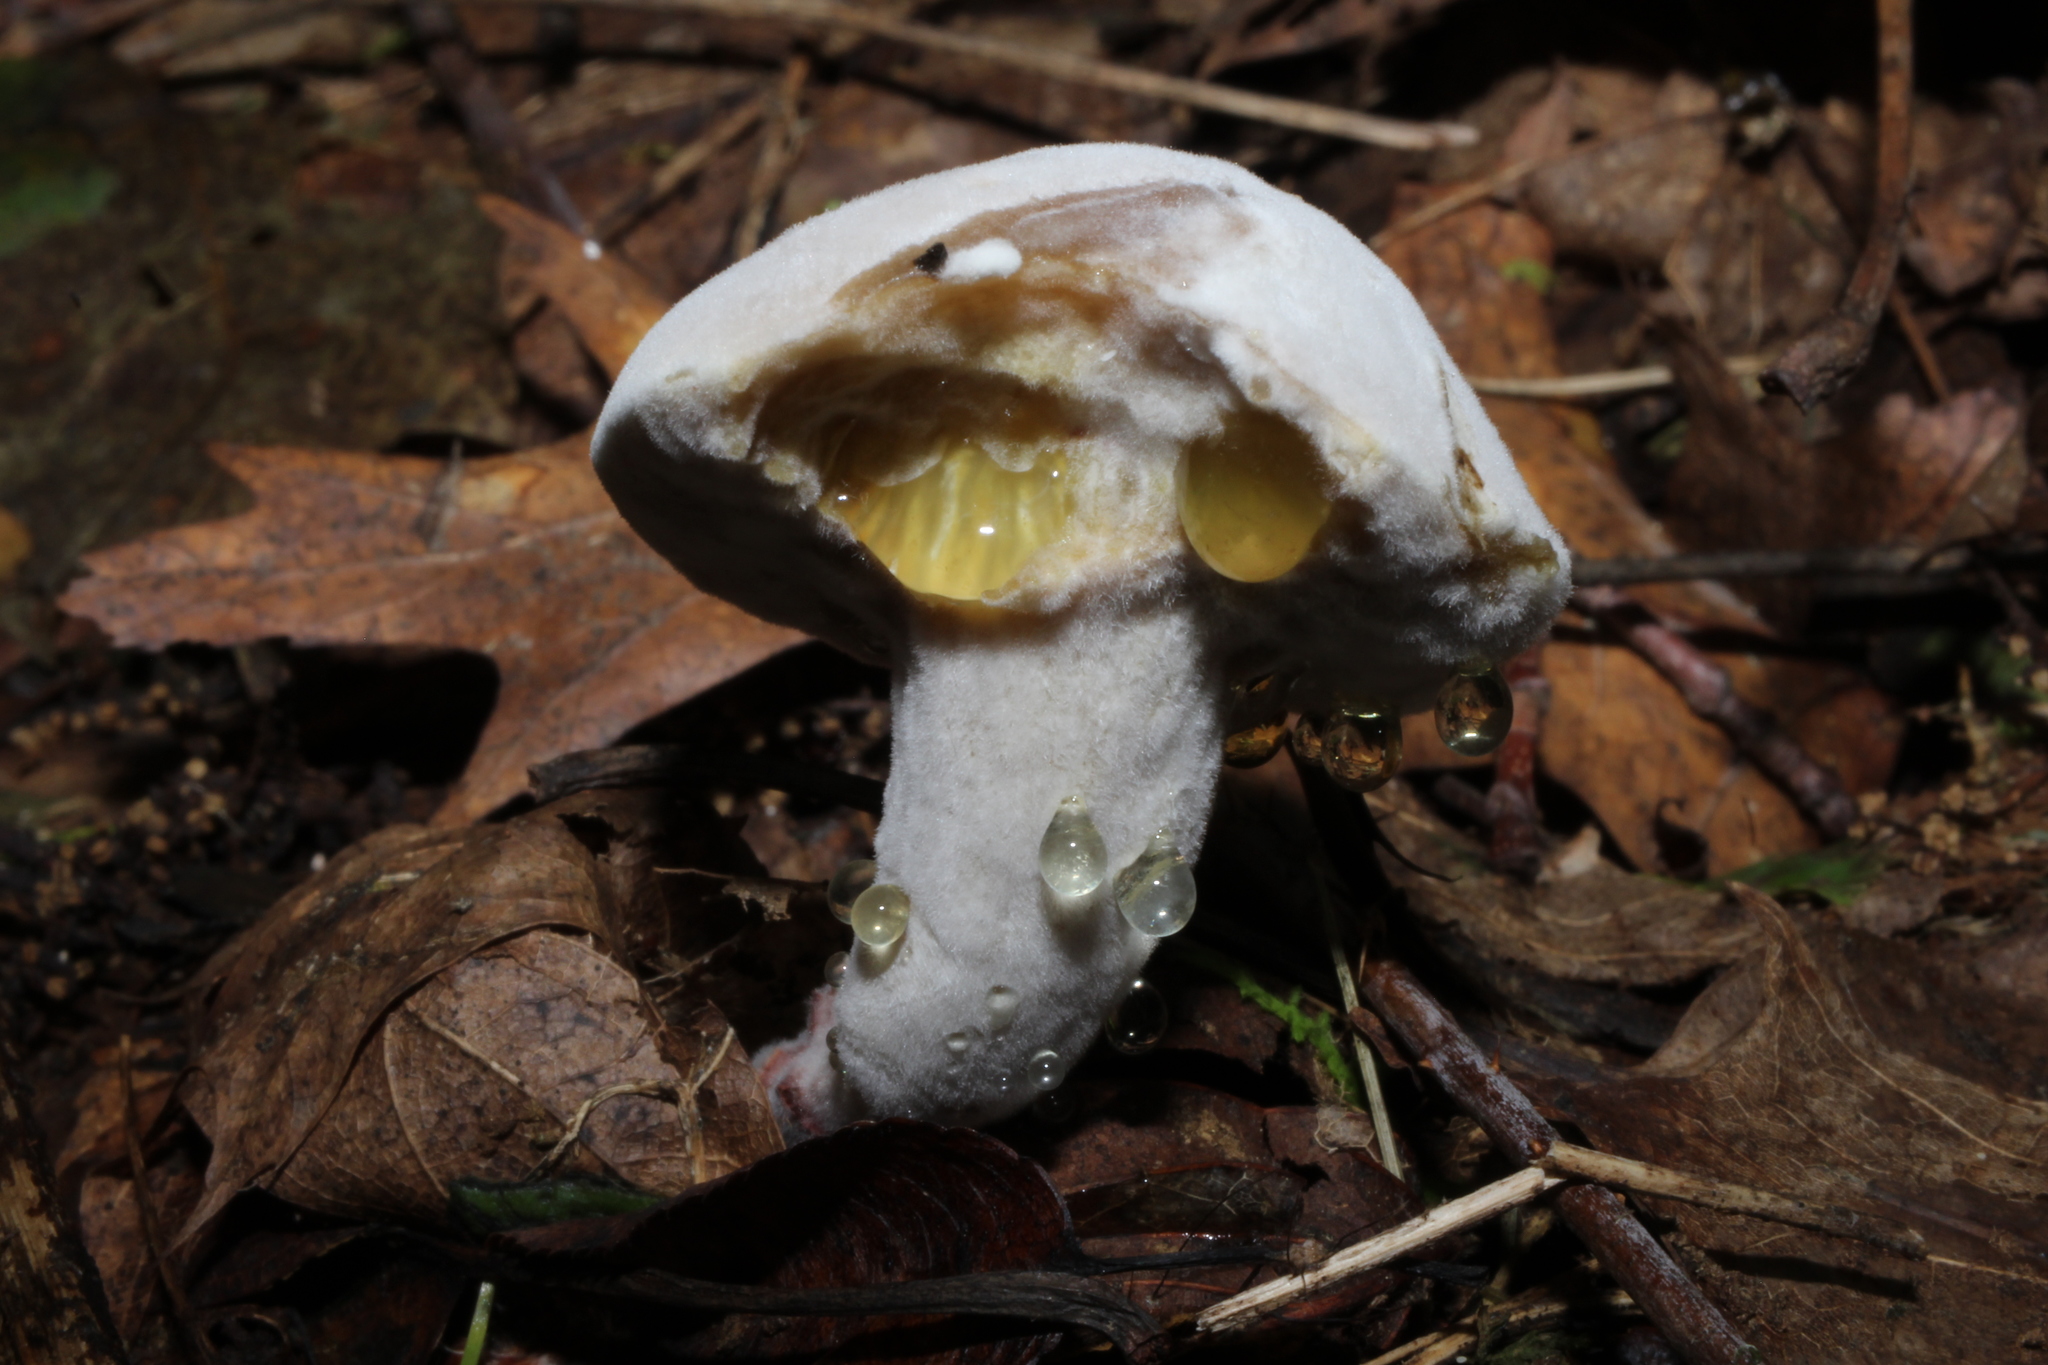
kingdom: Fungi
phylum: Ascomycota
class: Sordariomycetes
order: Hypocreales
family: Hypocreaceae
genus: Hypomyces
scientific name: Hypomyces chrysospermus
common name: Bolete mould
